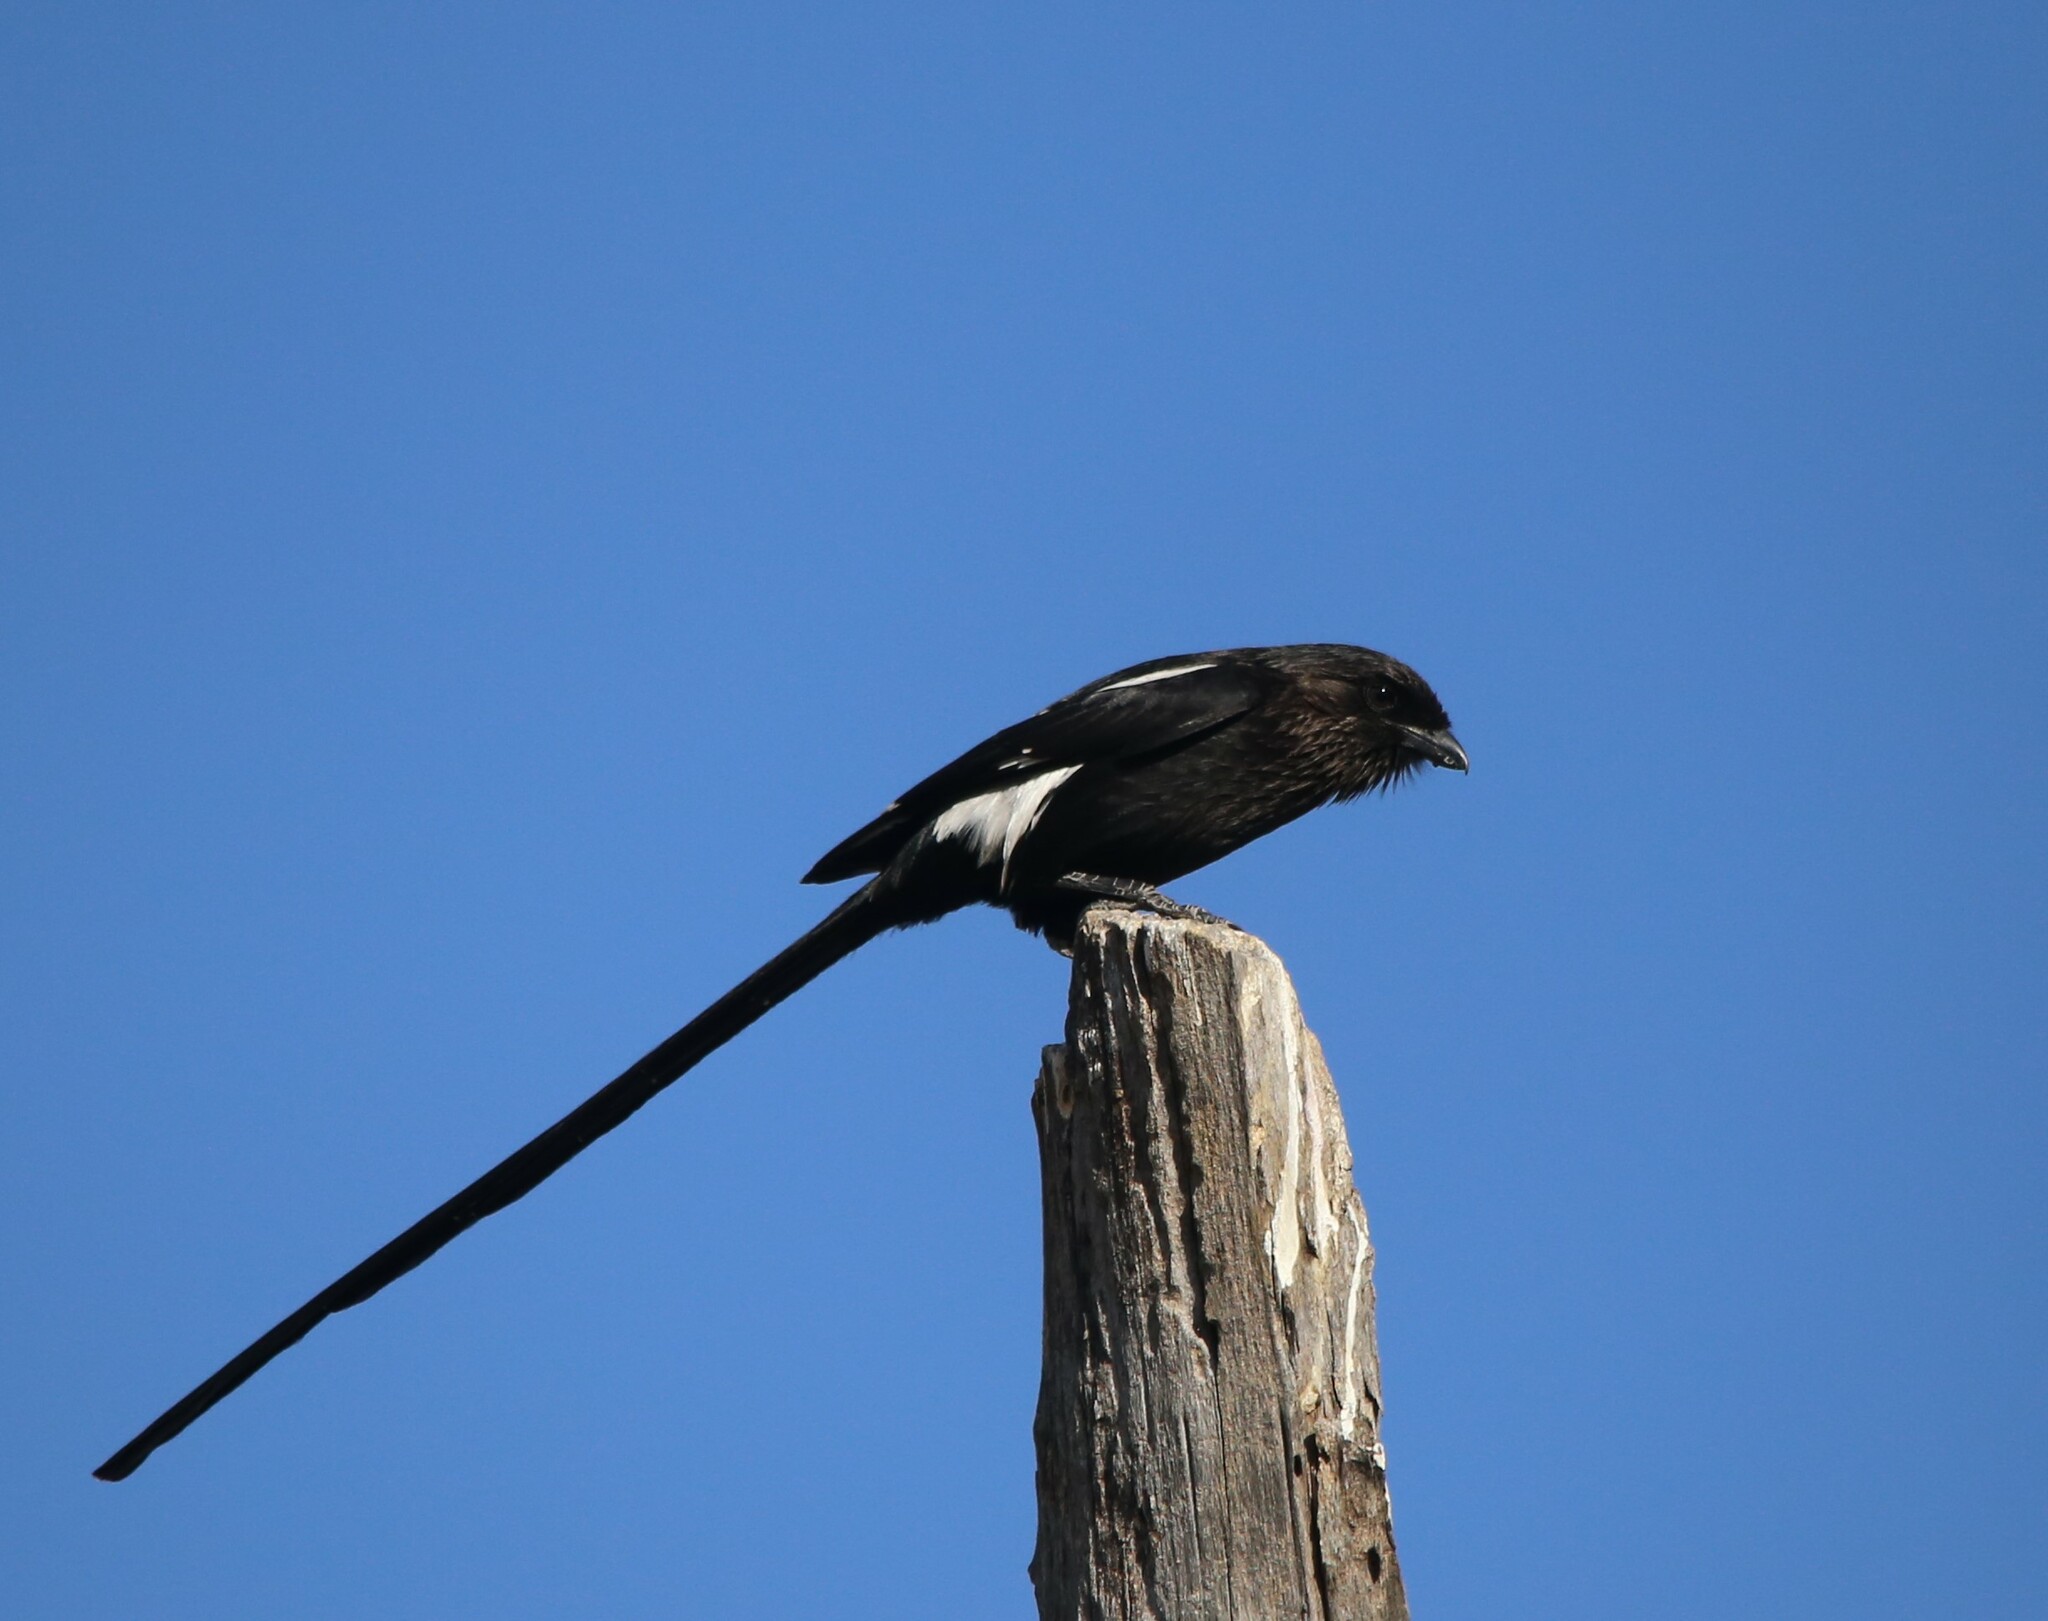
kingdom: Animalia
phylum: Chordata
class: Aves
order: Passeriformes
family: Laniidae
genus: Urolestes
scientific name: Urolestes melanoleucus
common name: Magpie shrike
